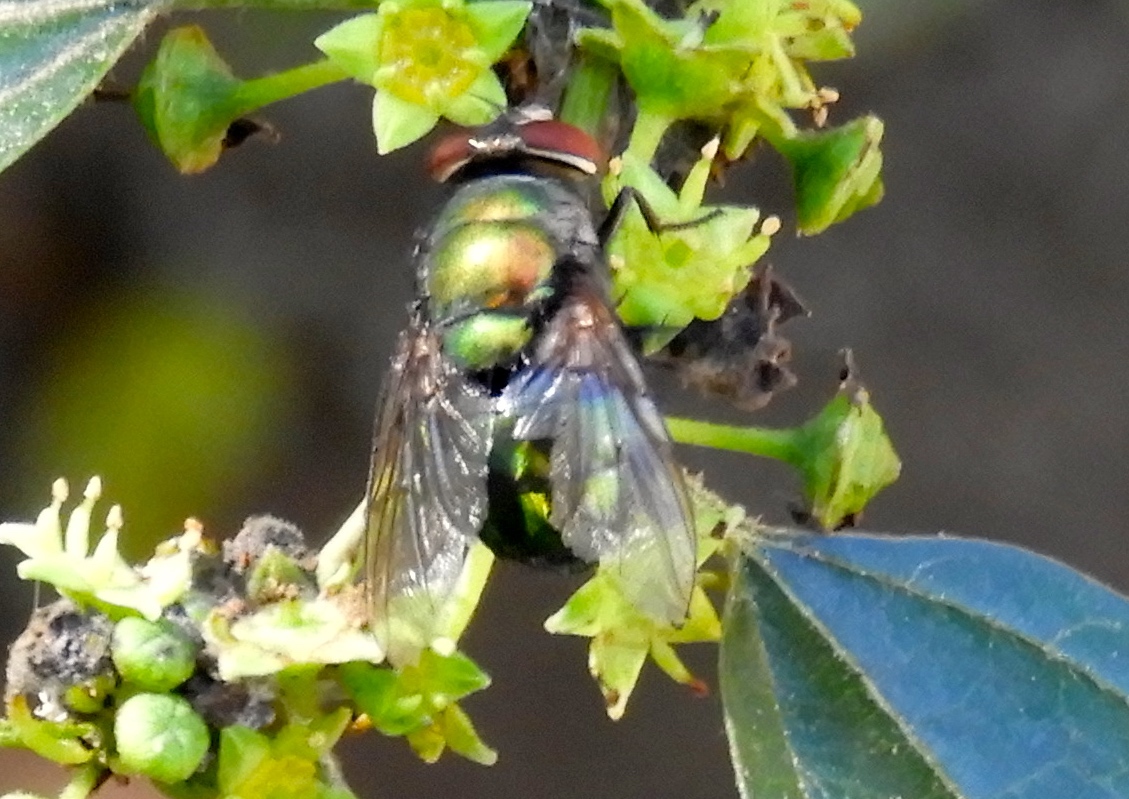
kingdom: Animalia
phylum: Arthropoda
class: Insecta
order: Diptera
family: Calliphoridae
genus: Lucilia
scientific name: Lucilia
